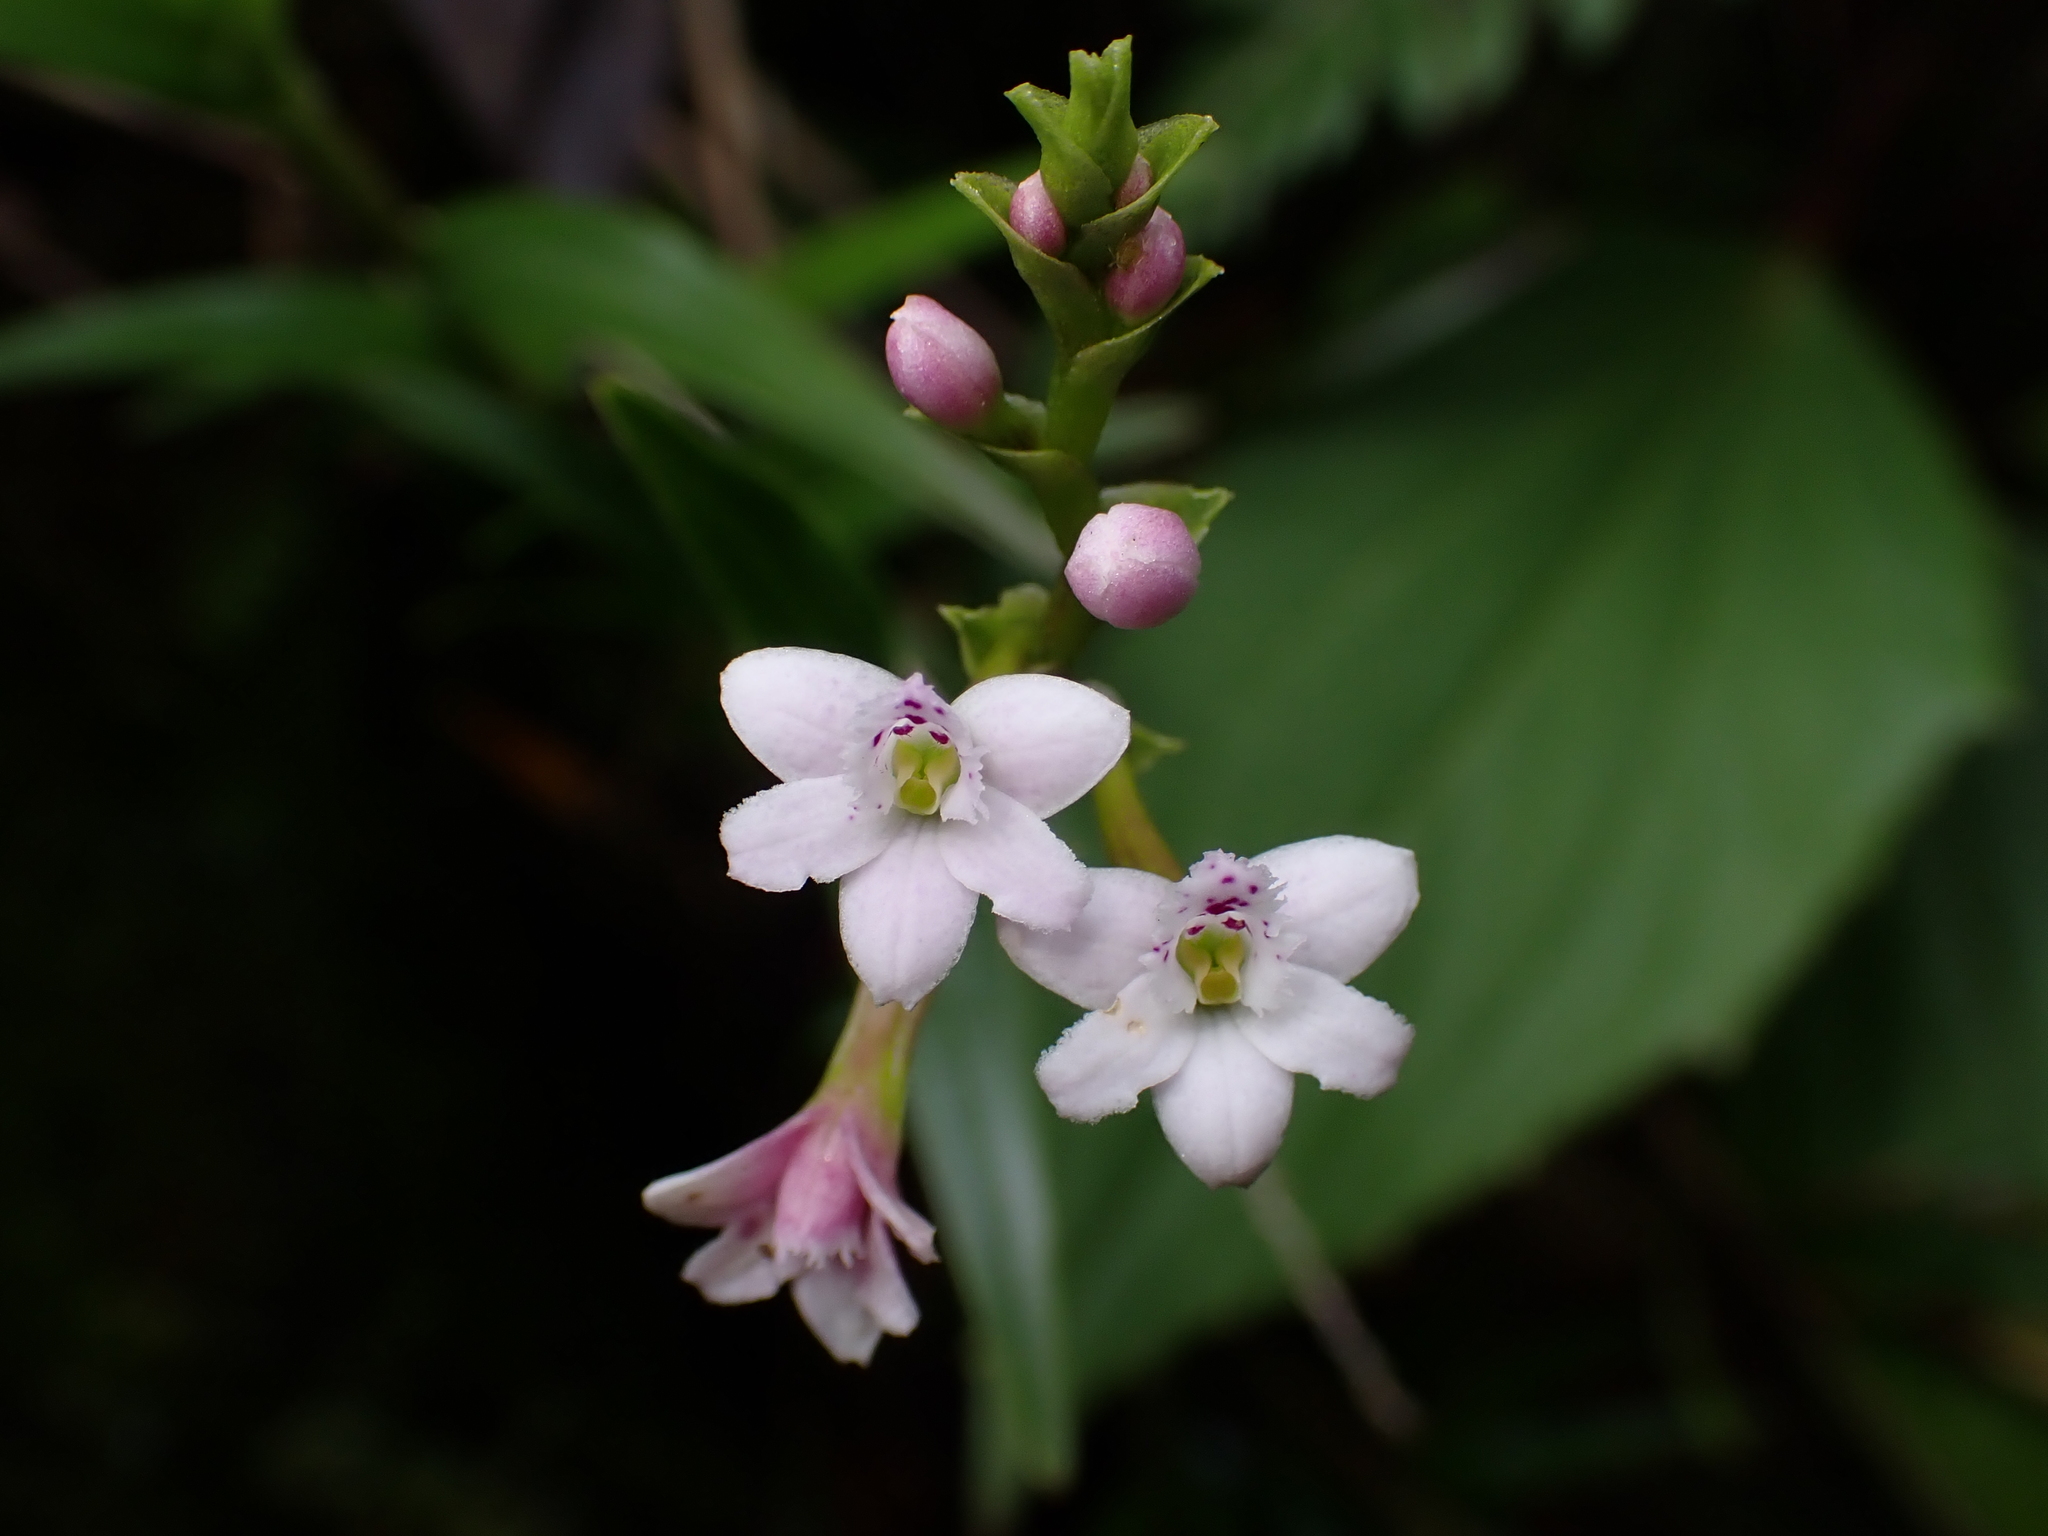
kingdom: Plantae
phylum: Tracheophyta
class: Liliopsida
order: Asparagales
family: Orchidaceae
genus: Epidendrum
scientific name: Epidendrum fimbriatum
